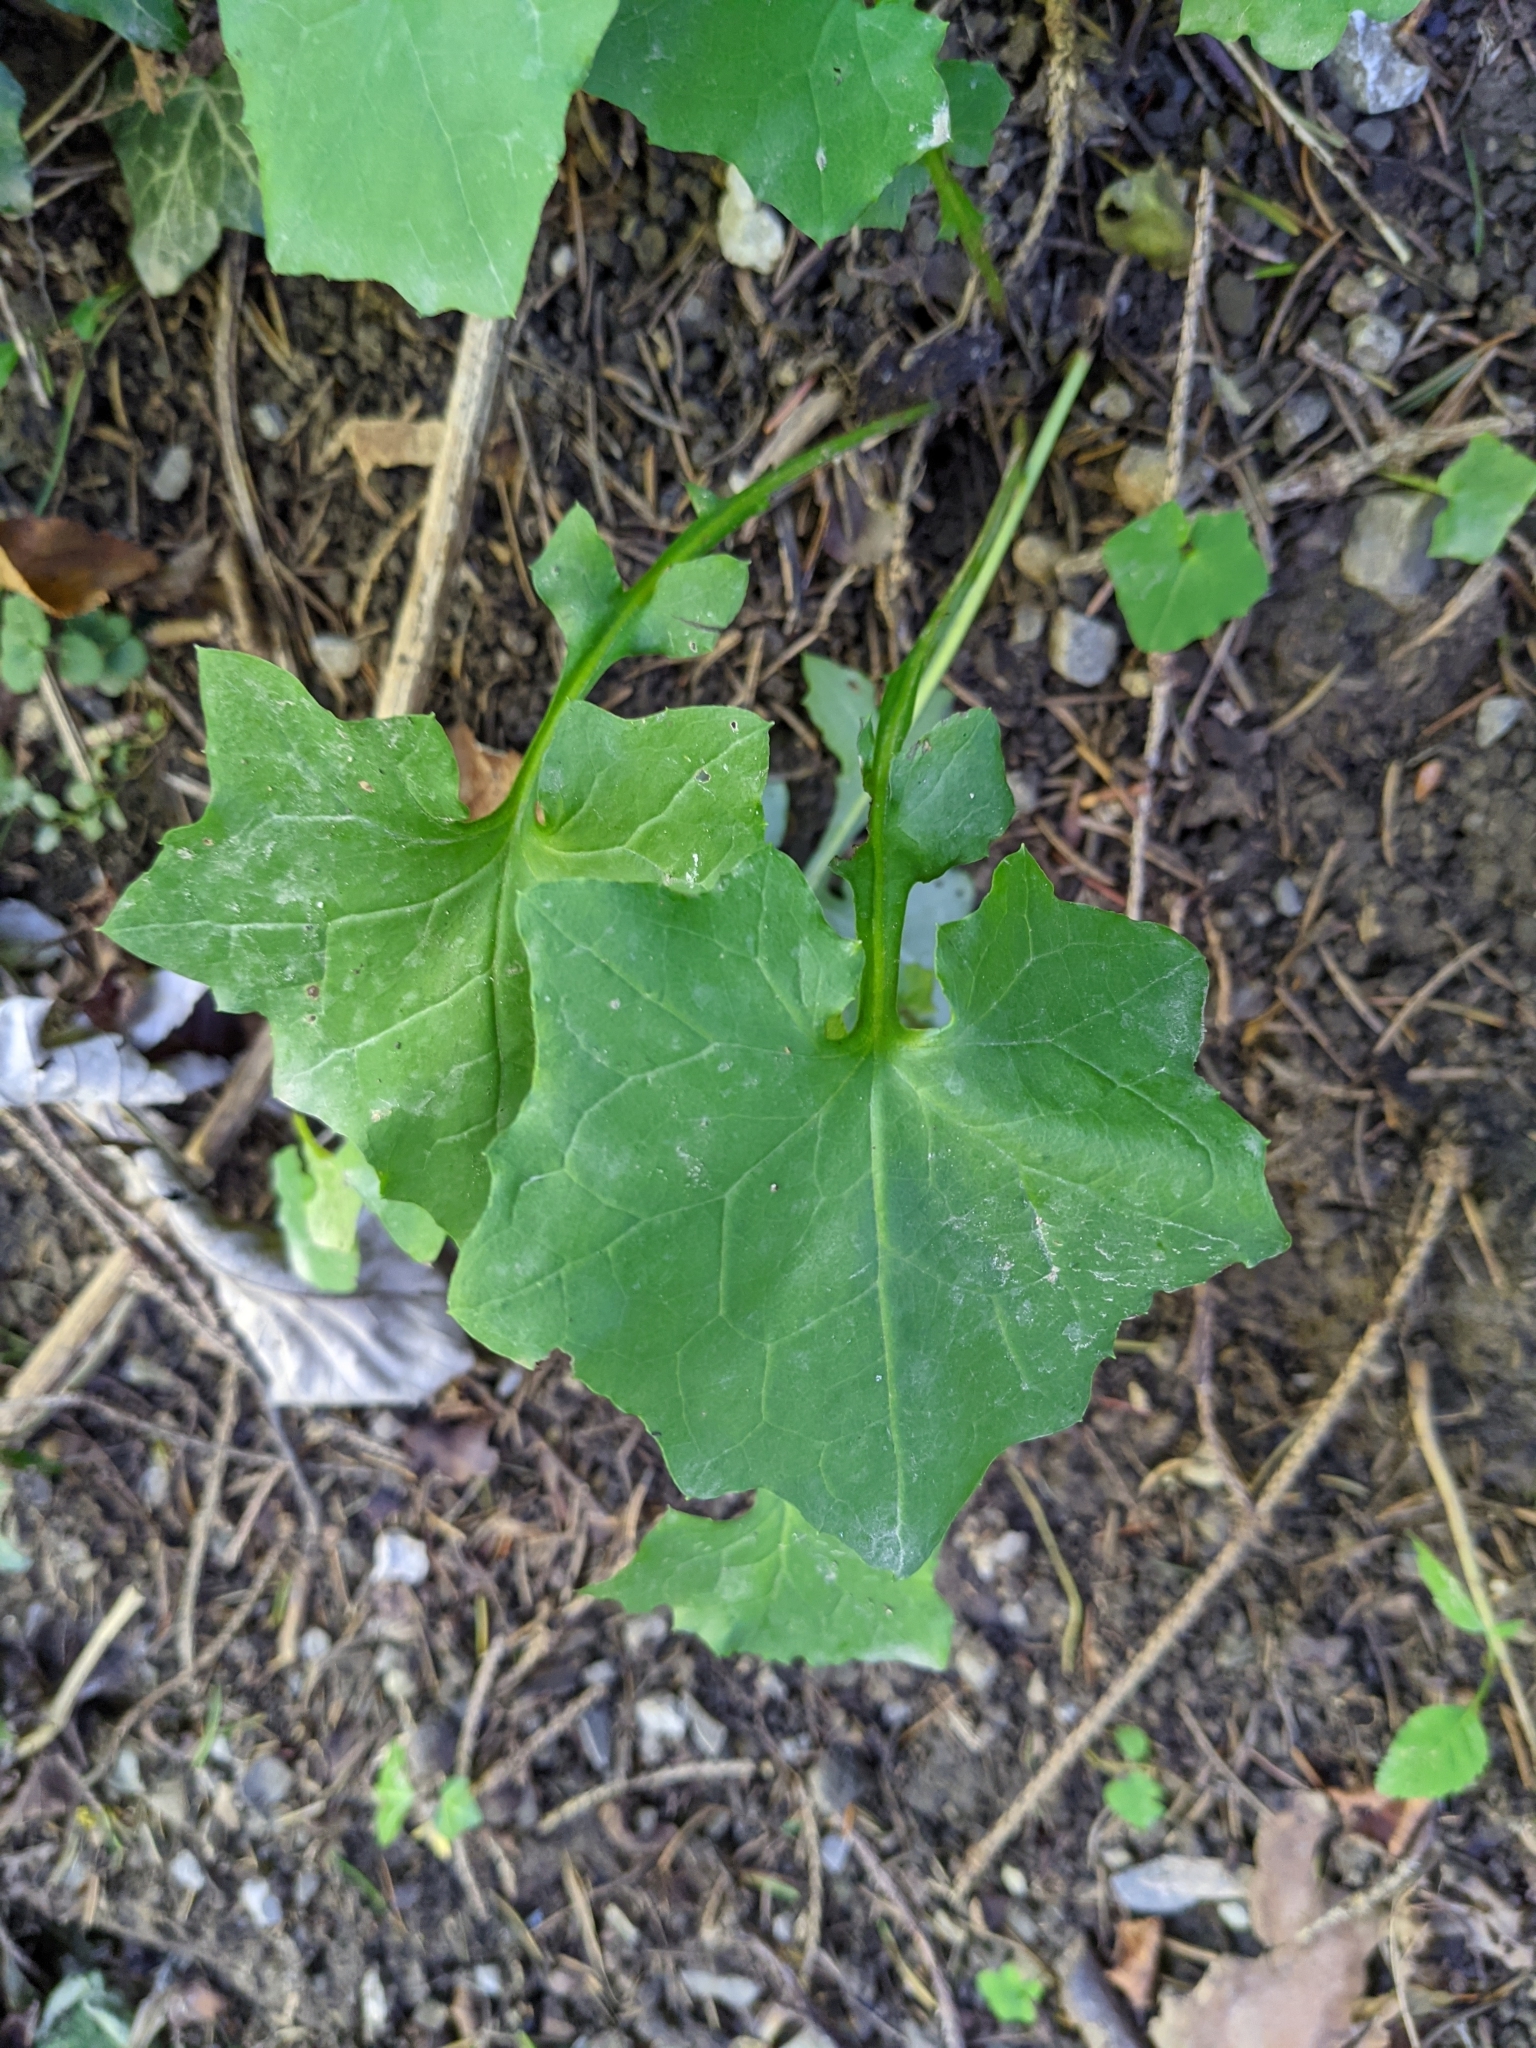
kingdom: Plantae
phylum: Tracheophyta
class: Magnoliopsida
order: Asterales
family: Asteraceae
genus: Mycelis
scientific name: Mycelis muralis
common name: Wall lettuce
